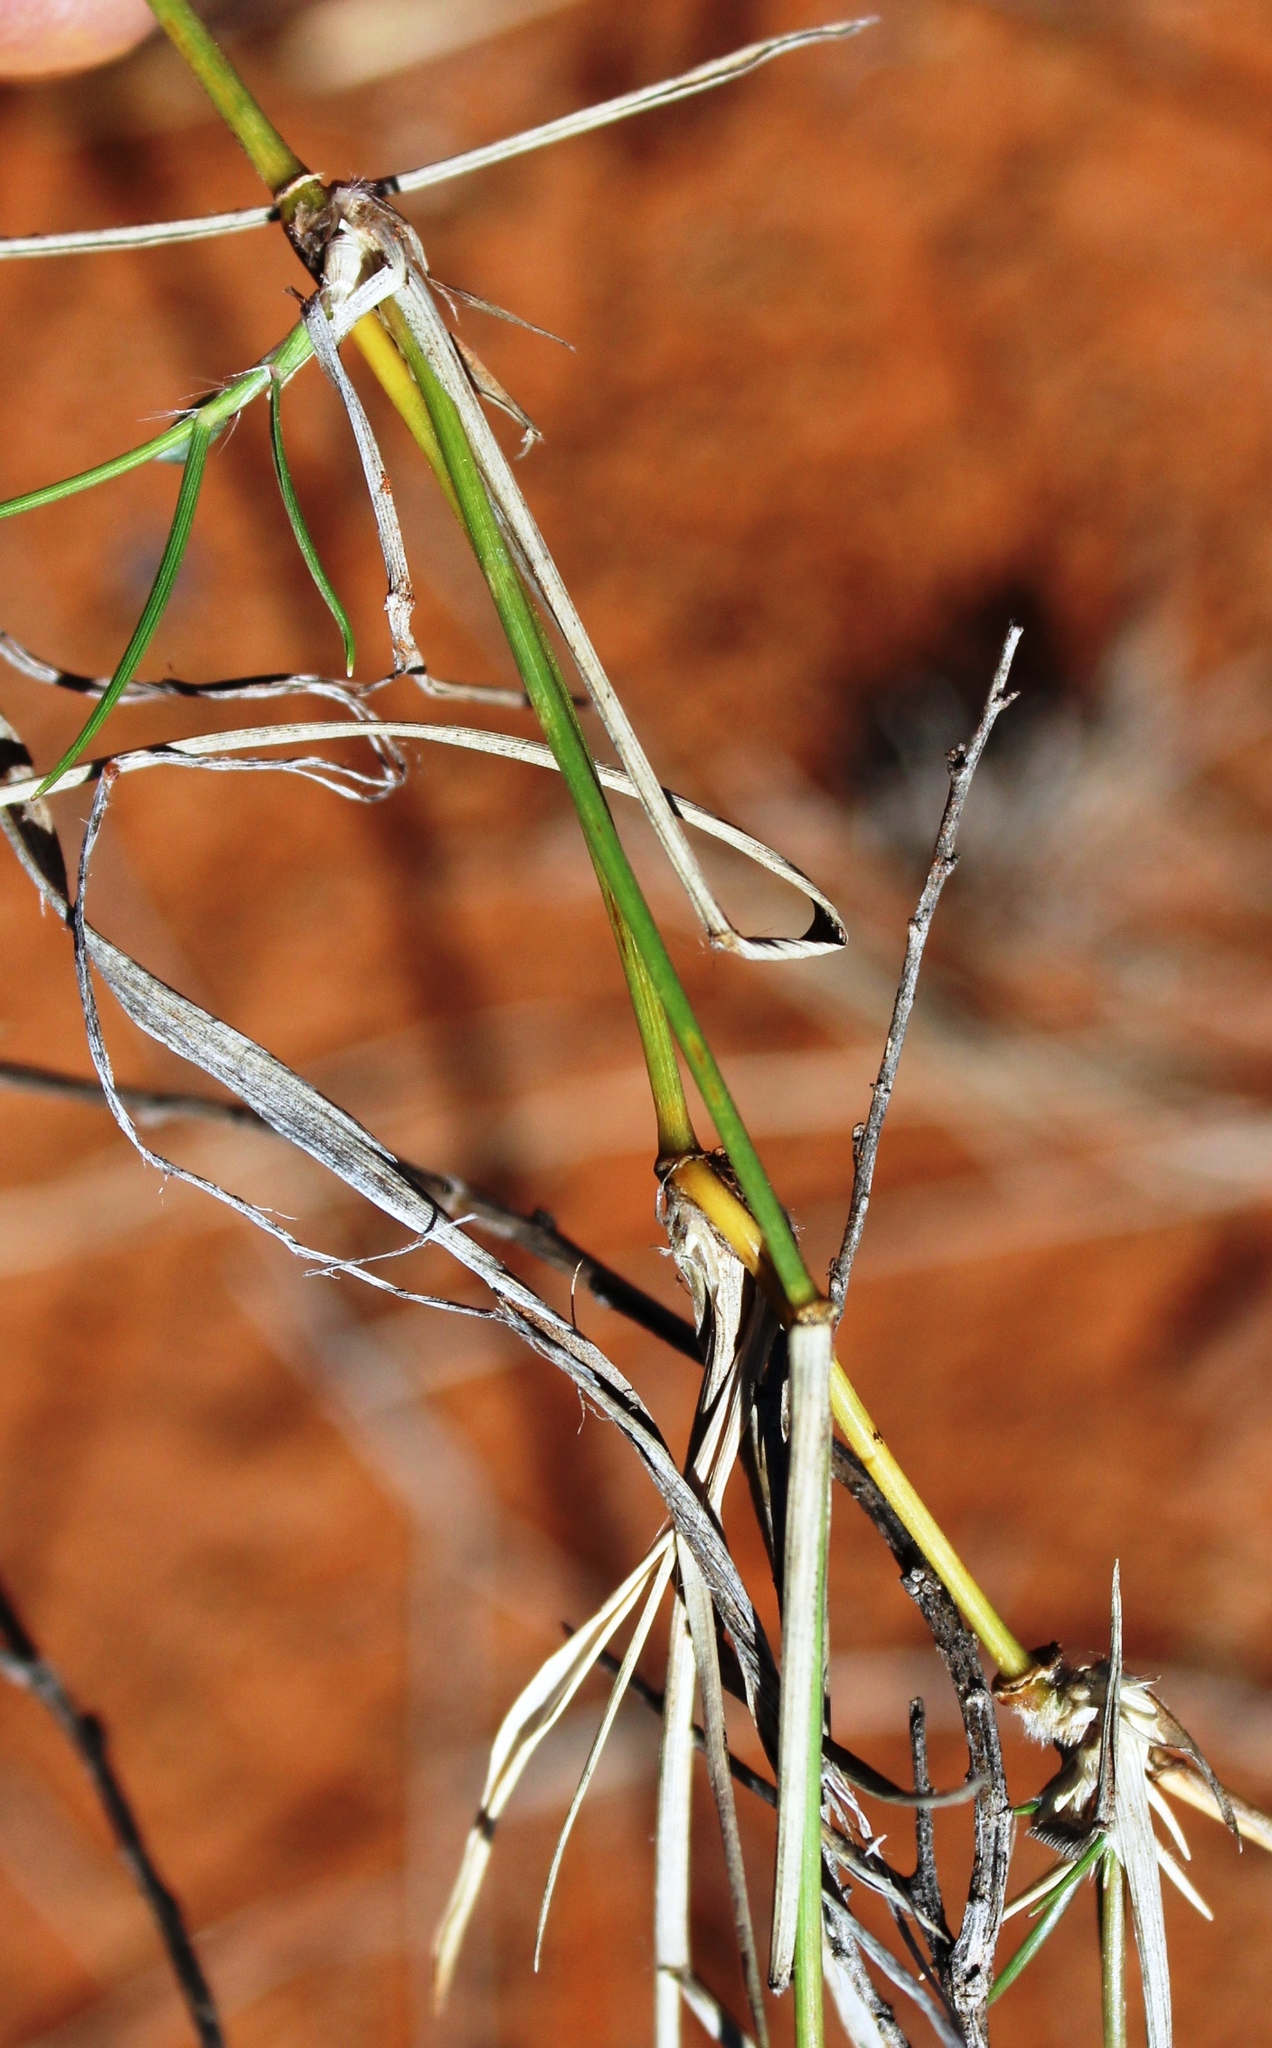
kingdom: Plantae
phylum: Tracheophyta
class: Liliopsida
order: Poales
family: Poaceae
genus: Stipagrostis
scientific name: Stipagrostis namaquensis
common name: River bushman grass
